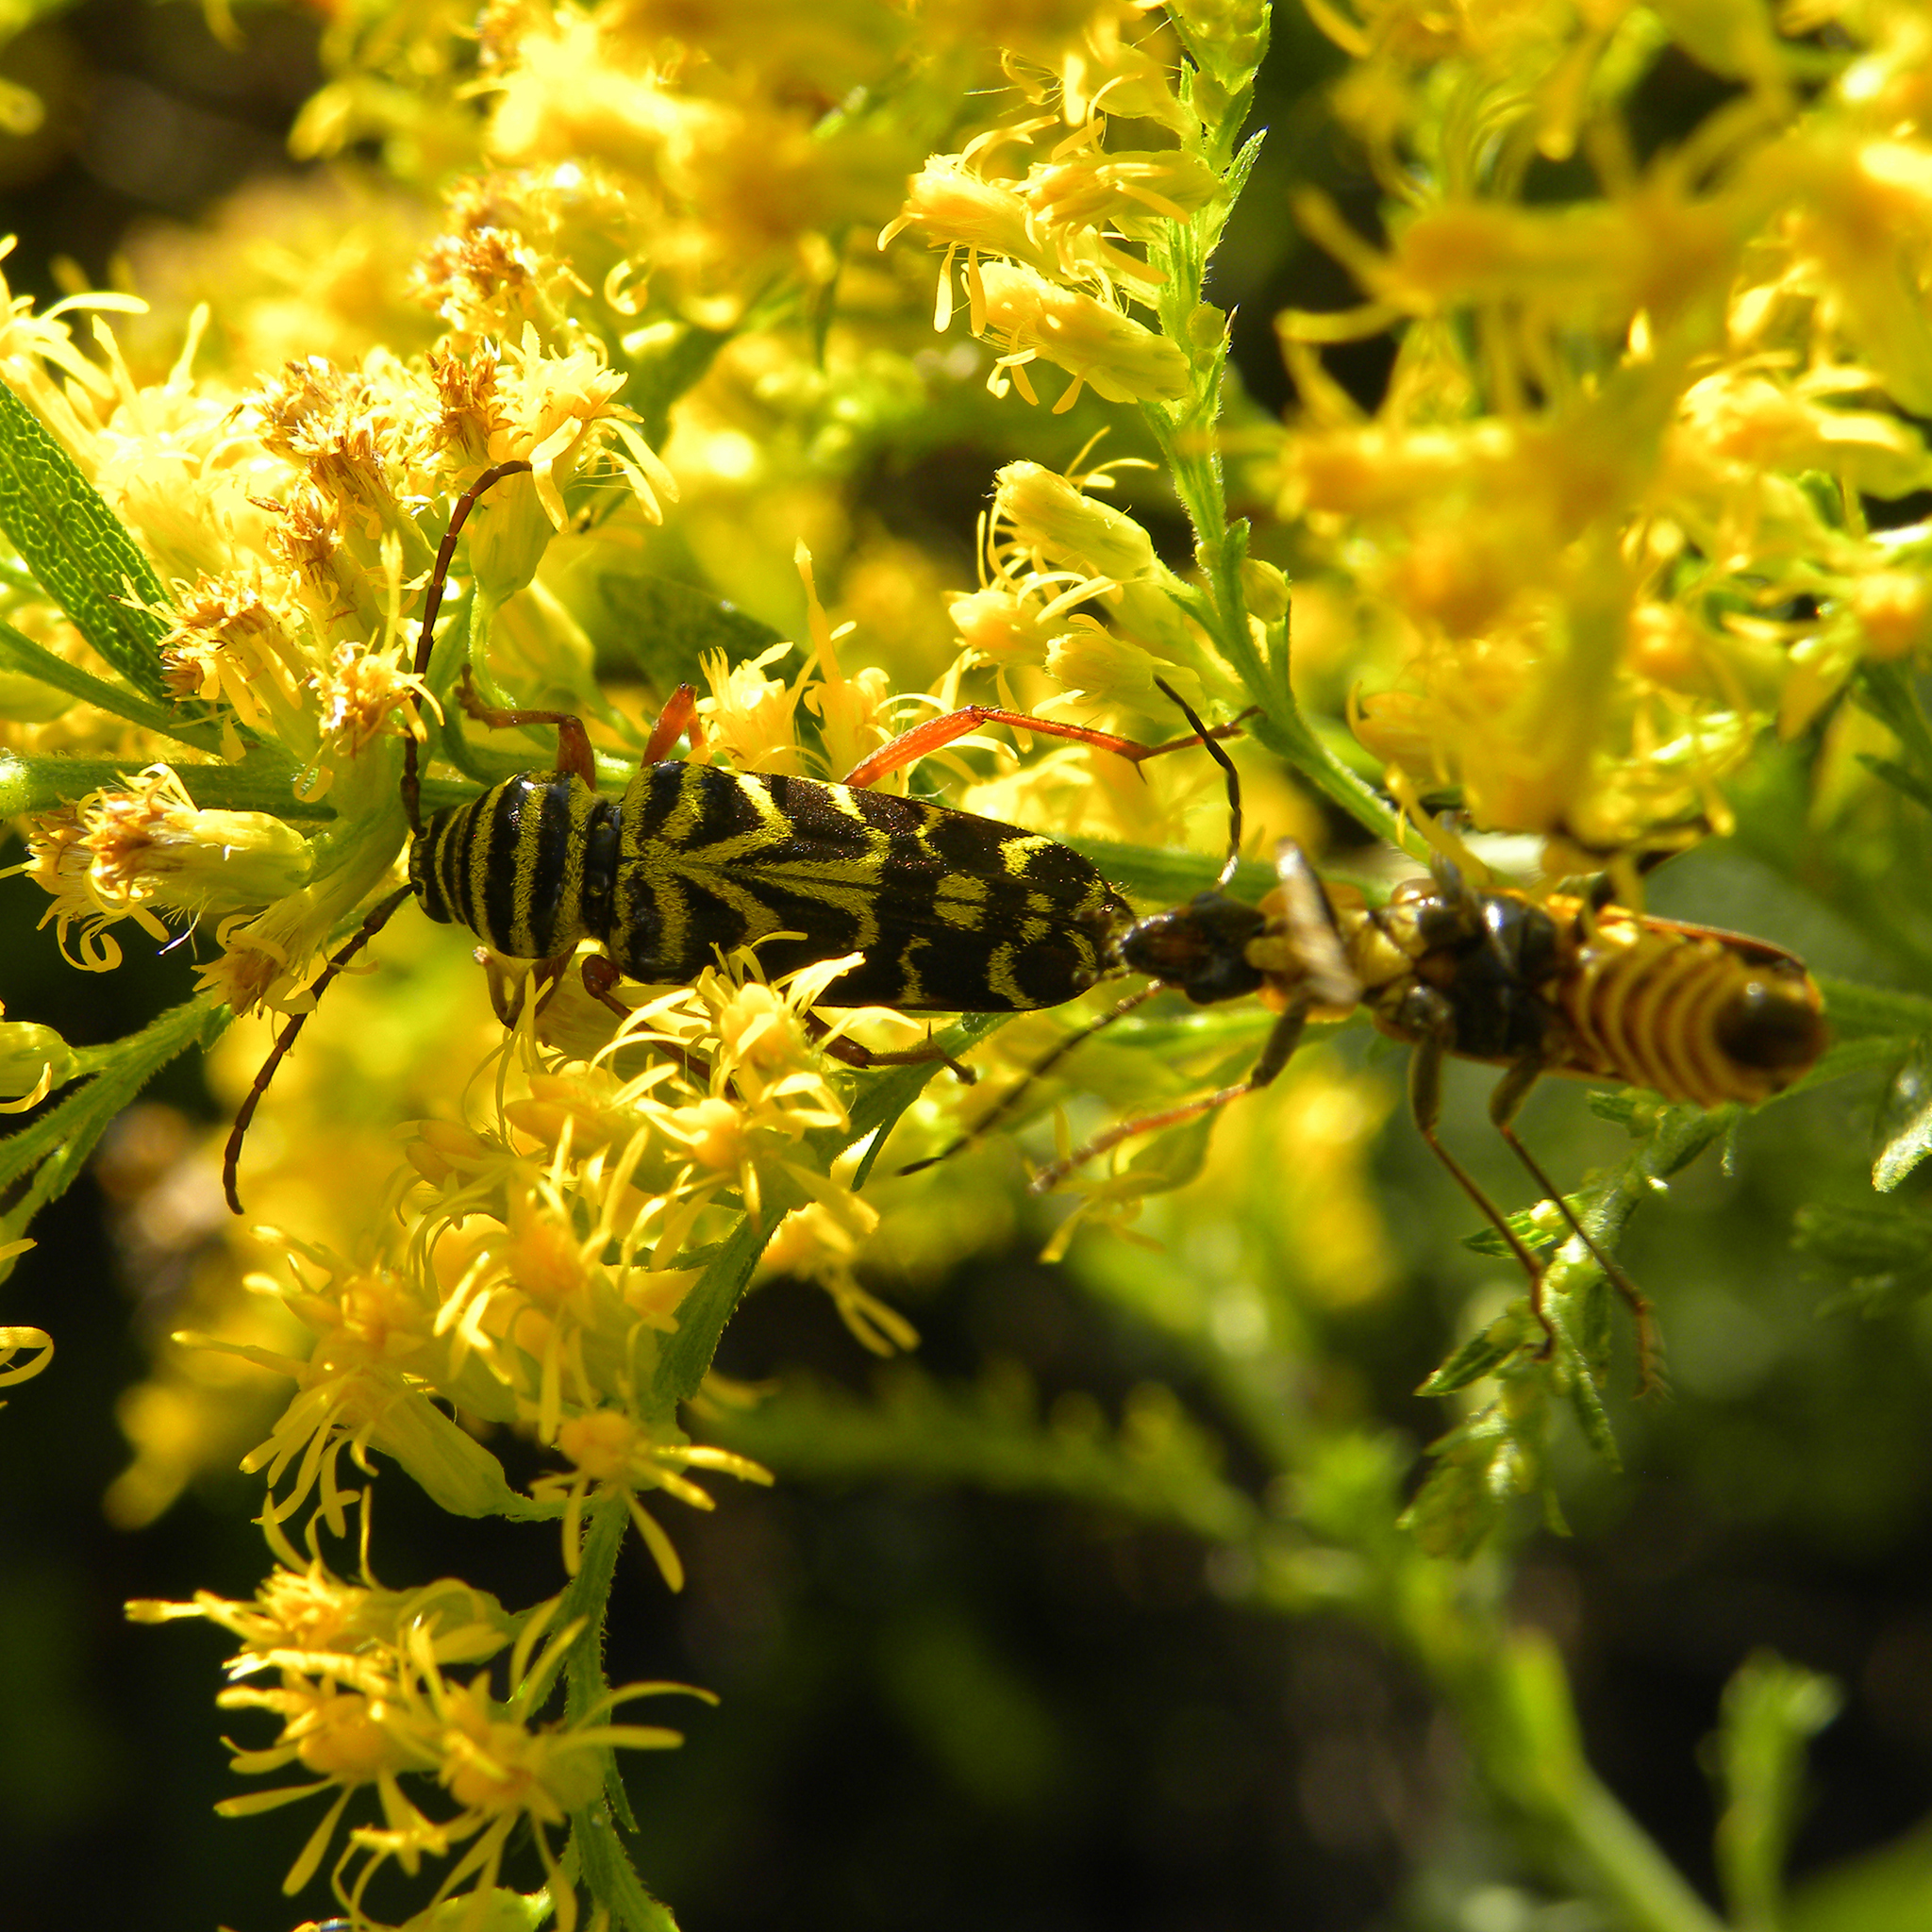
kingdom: Animalia
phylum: Arthropoda
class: Insecta
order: Coleoptera
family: Cantharidae
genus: Chauliognathus
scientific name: Chauliognathus pensylvanicus
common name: Goldenrod soldier beetle
